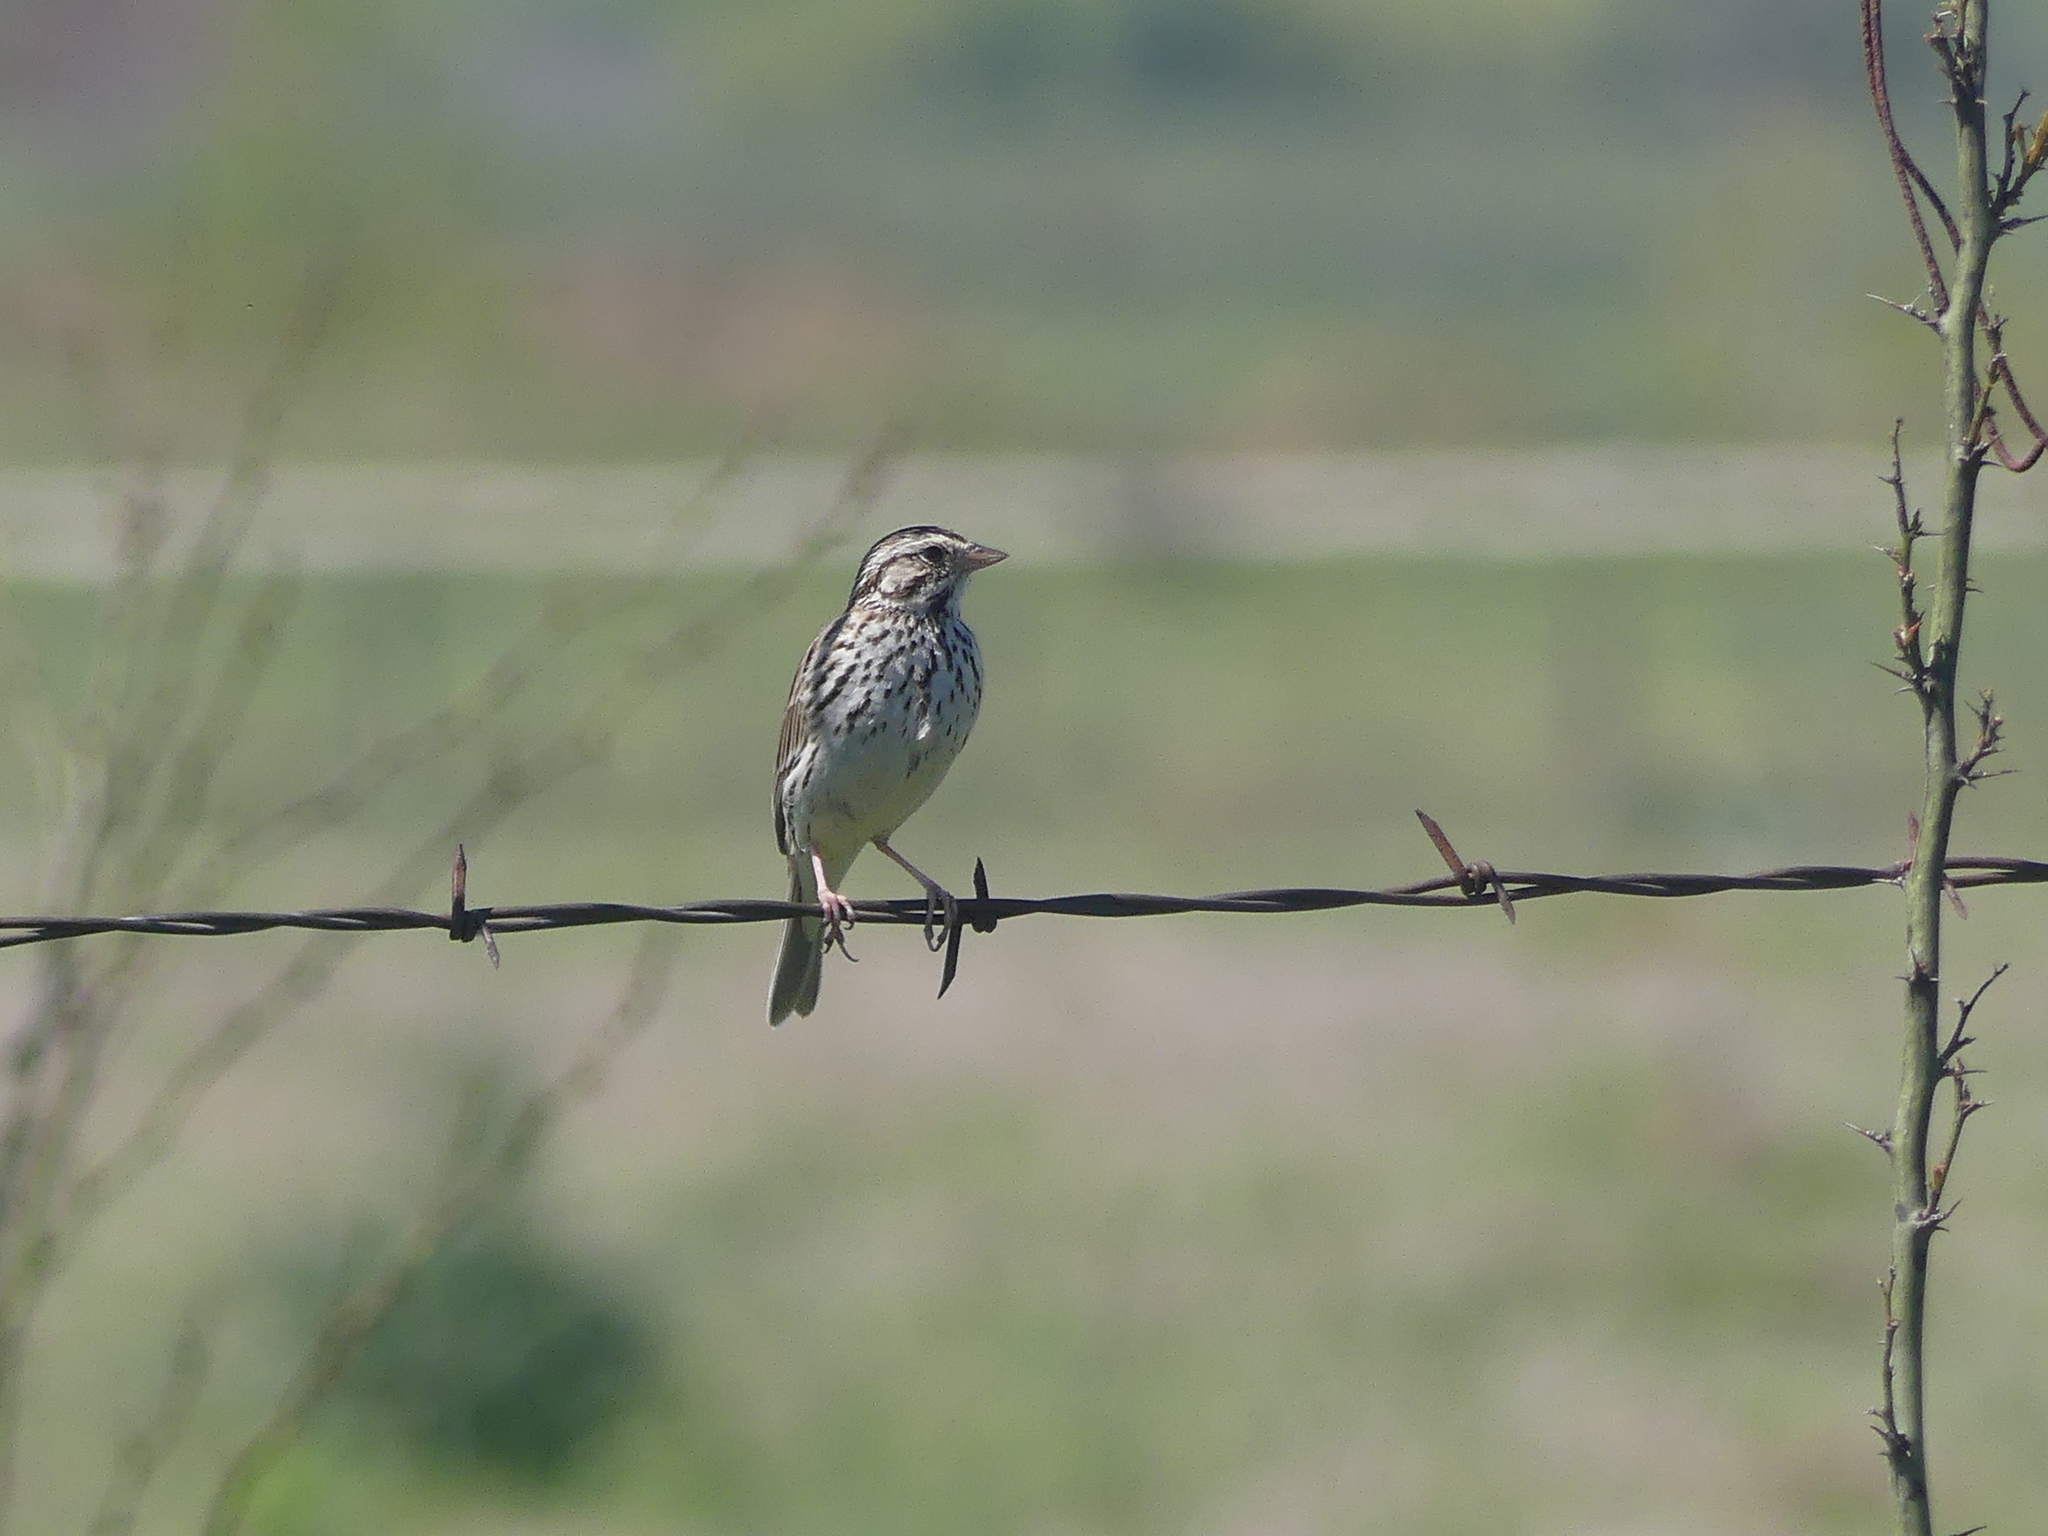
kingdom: Animalia
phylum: Chordata
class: Aves
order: Passeriformes
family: Passerellidae
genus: Passerculus
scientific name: Passerculus sandwichensis
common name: Savannah sparrow
